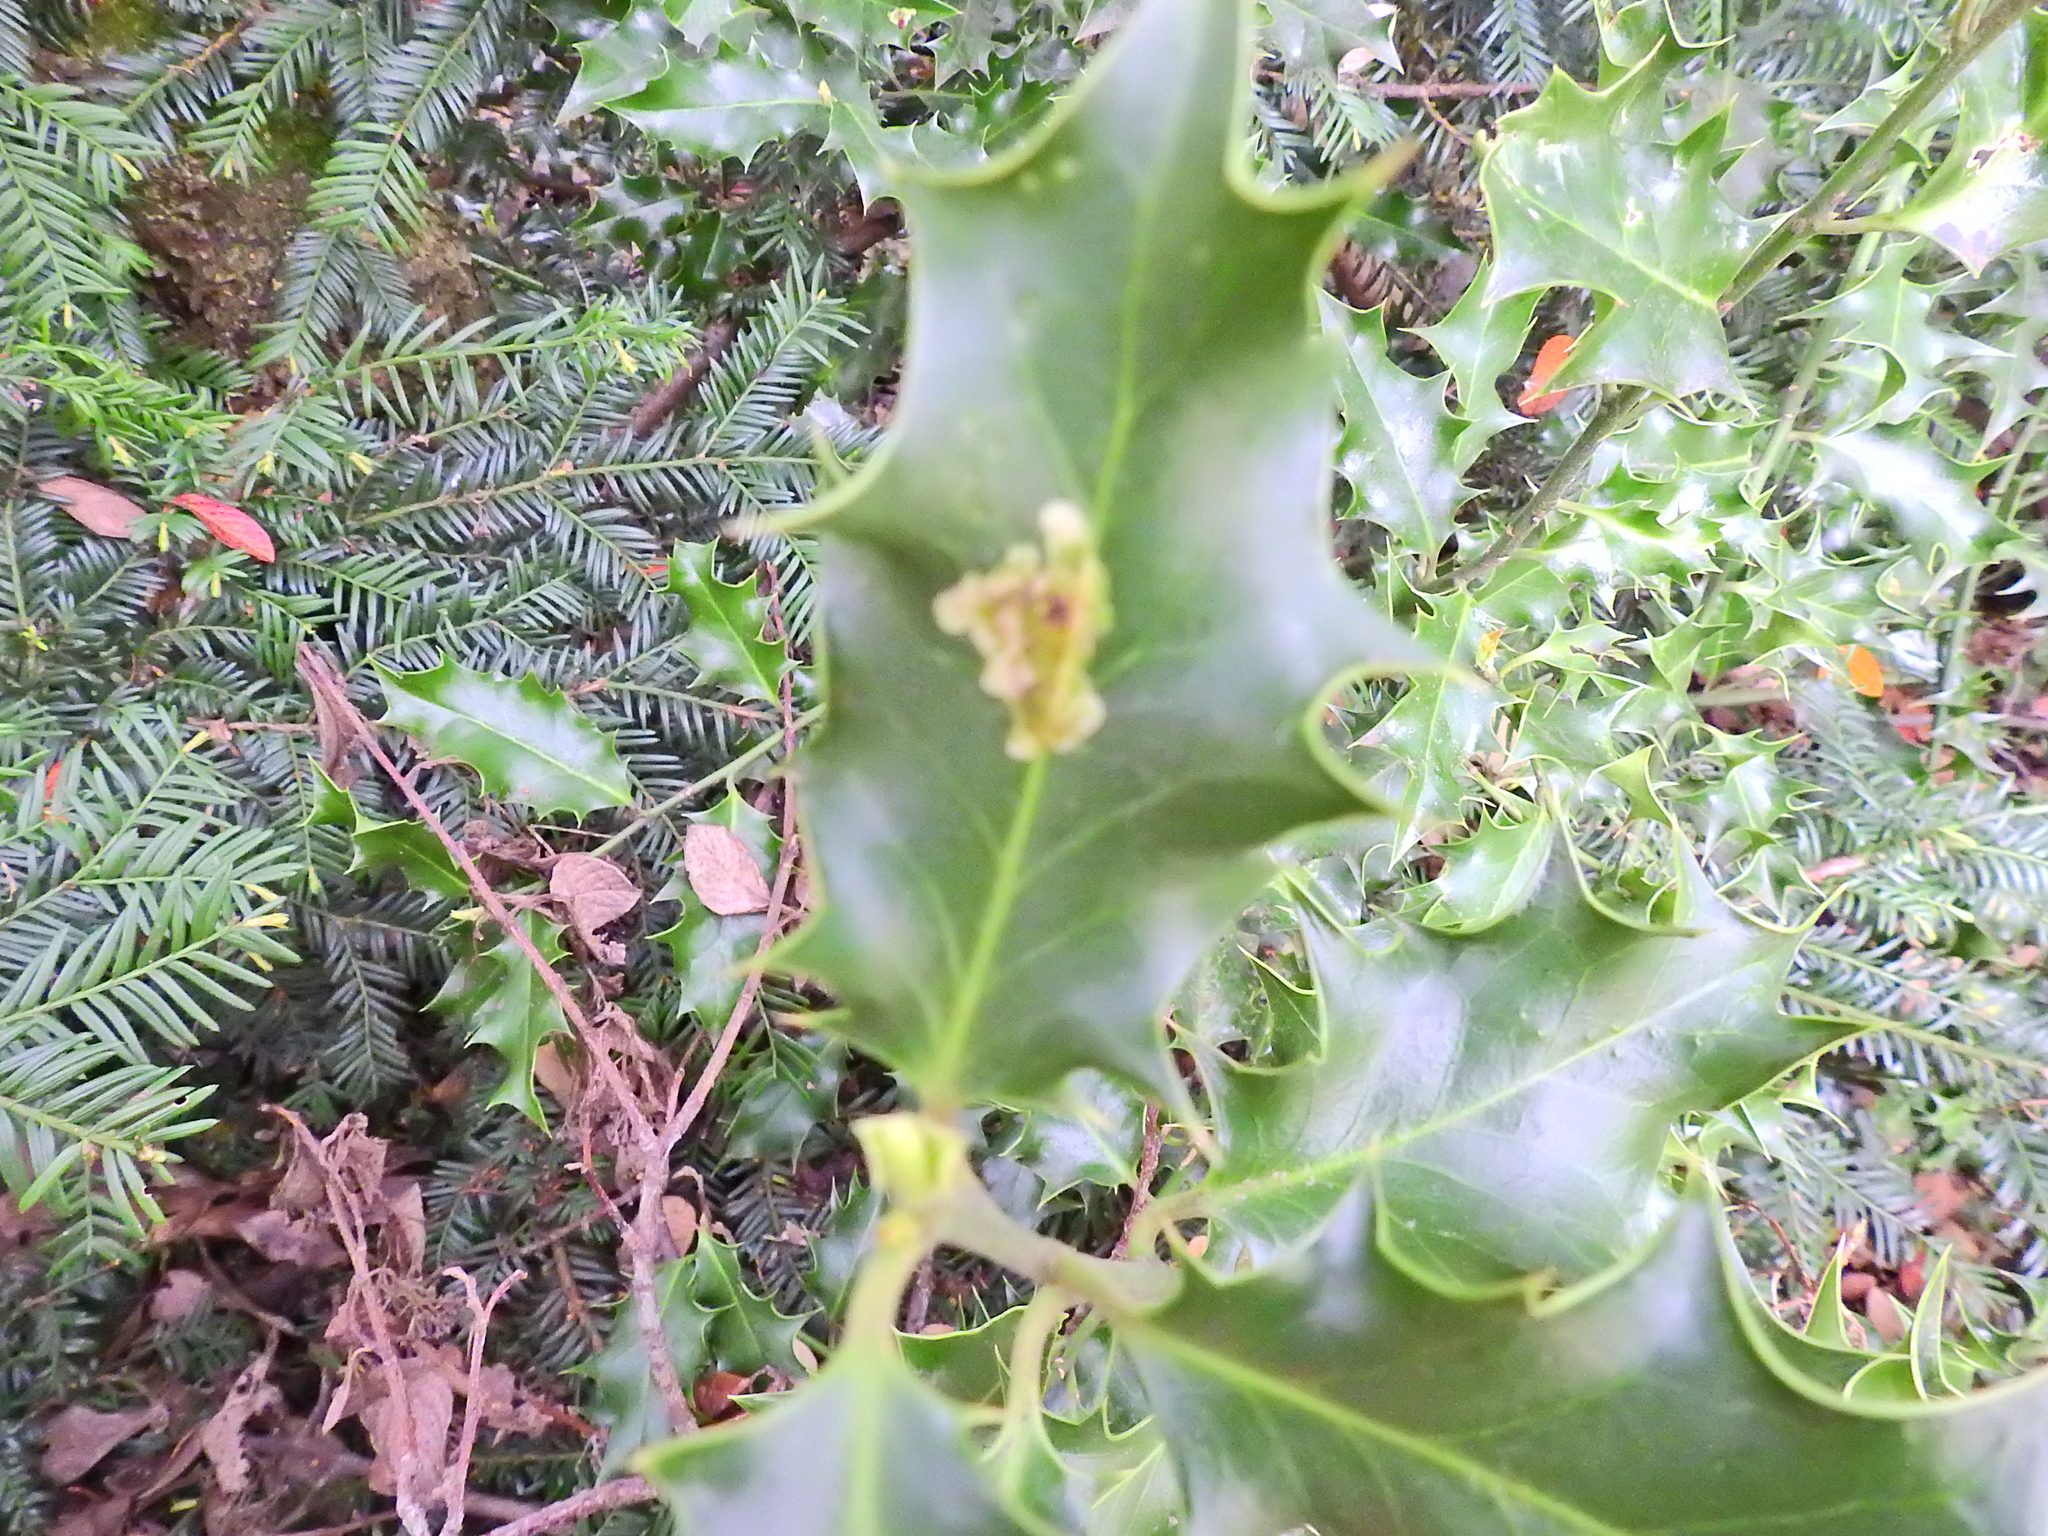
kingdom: Animalia
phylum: Arthropoda
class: Insecta
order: Diptera
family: Agromyzidae
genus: Phytomyza
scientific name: Phytomyza ilicis
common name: Holly leafminer
